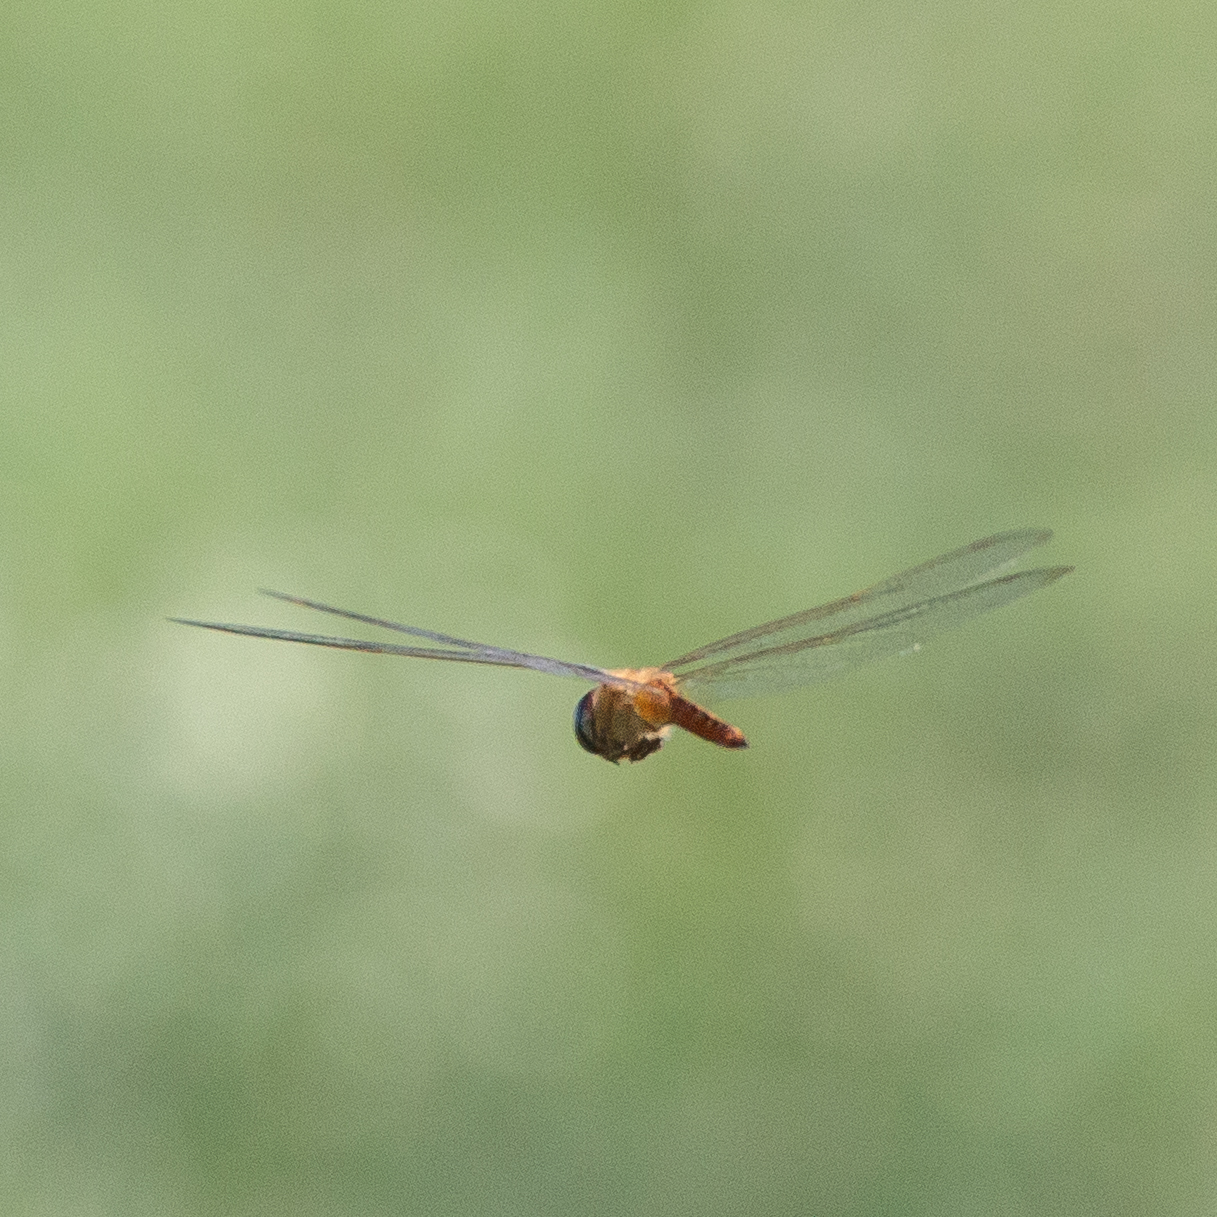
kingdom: Animalia
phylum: Arthropoda
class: Insecta
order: Odonata
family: Libellulidae
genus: Pantala
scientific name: Pantala flavescens
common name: Wandering glider
